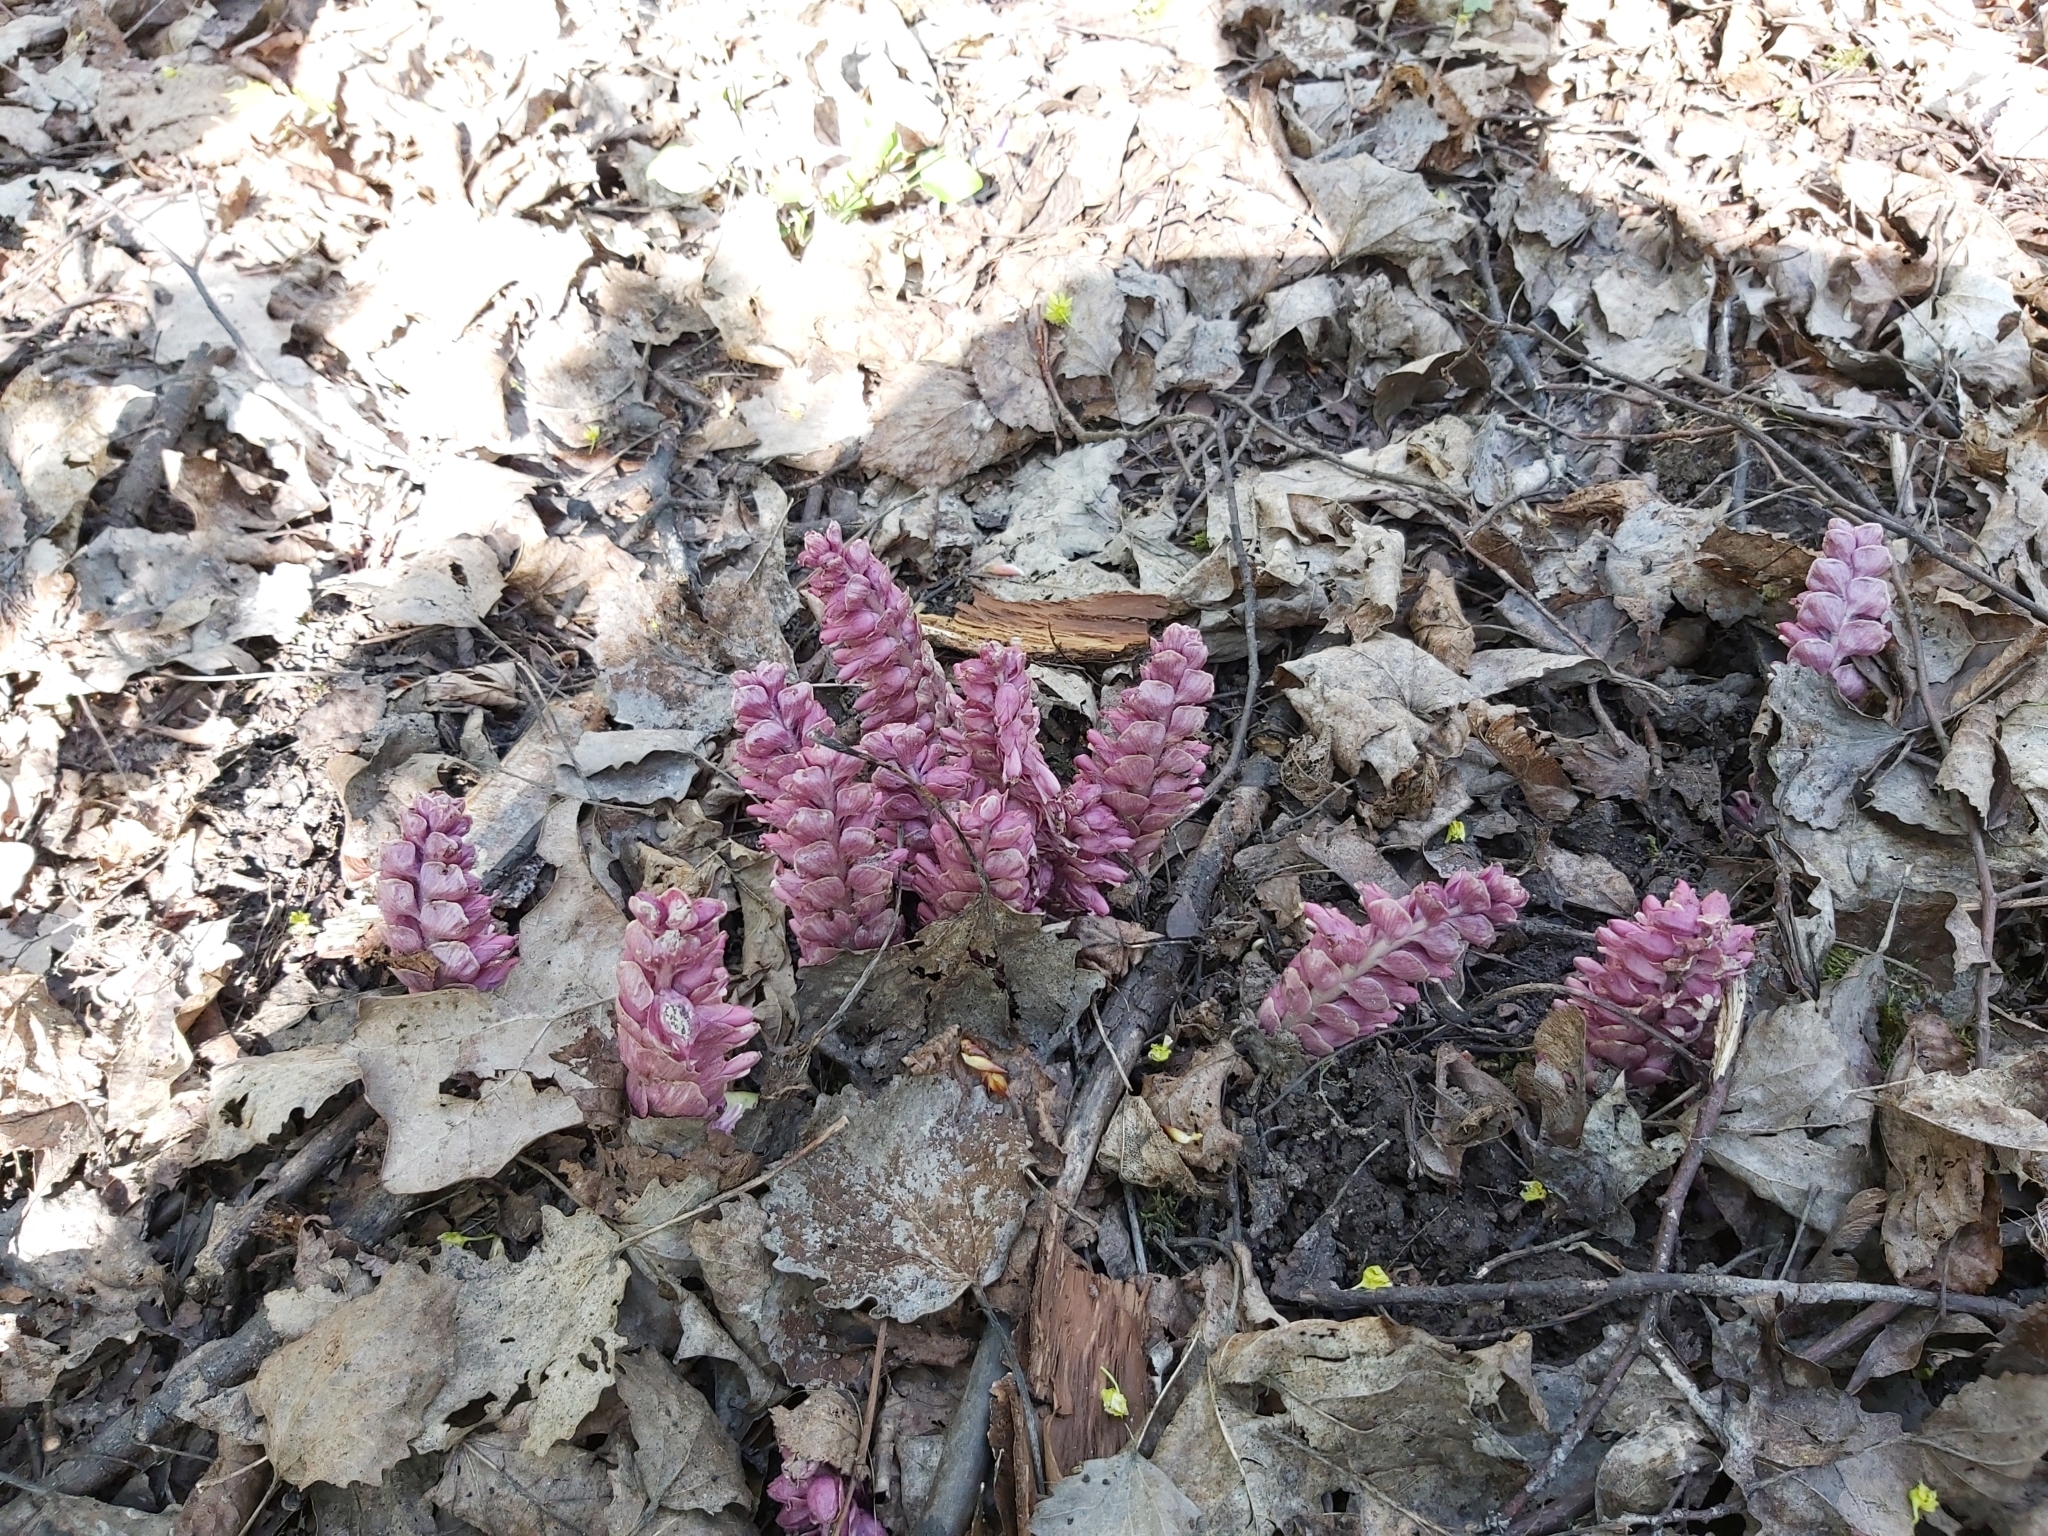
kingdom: Plantae
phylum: Tracheophyta
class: Magnoliopsida
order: Lamiales
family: Orobanchaceae
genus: Lathraea
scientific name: Lathraea squamaria
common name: Toothwort
